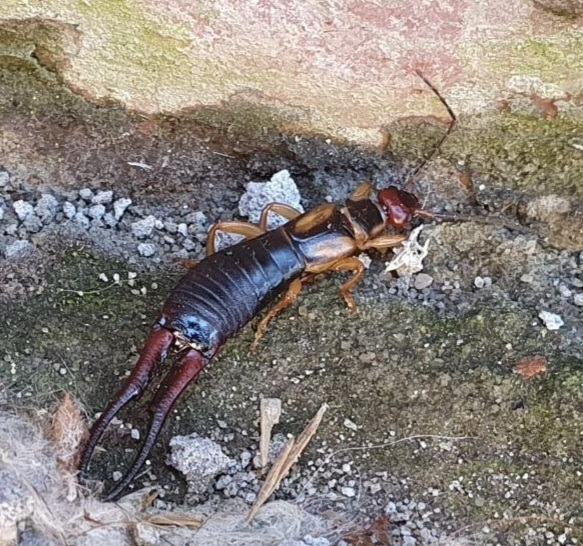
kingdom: Animalia
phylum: Arthropoda
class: Insecta
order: Dermaptera
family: Forficulidae
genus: Forficula
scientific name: Forficula tomis
